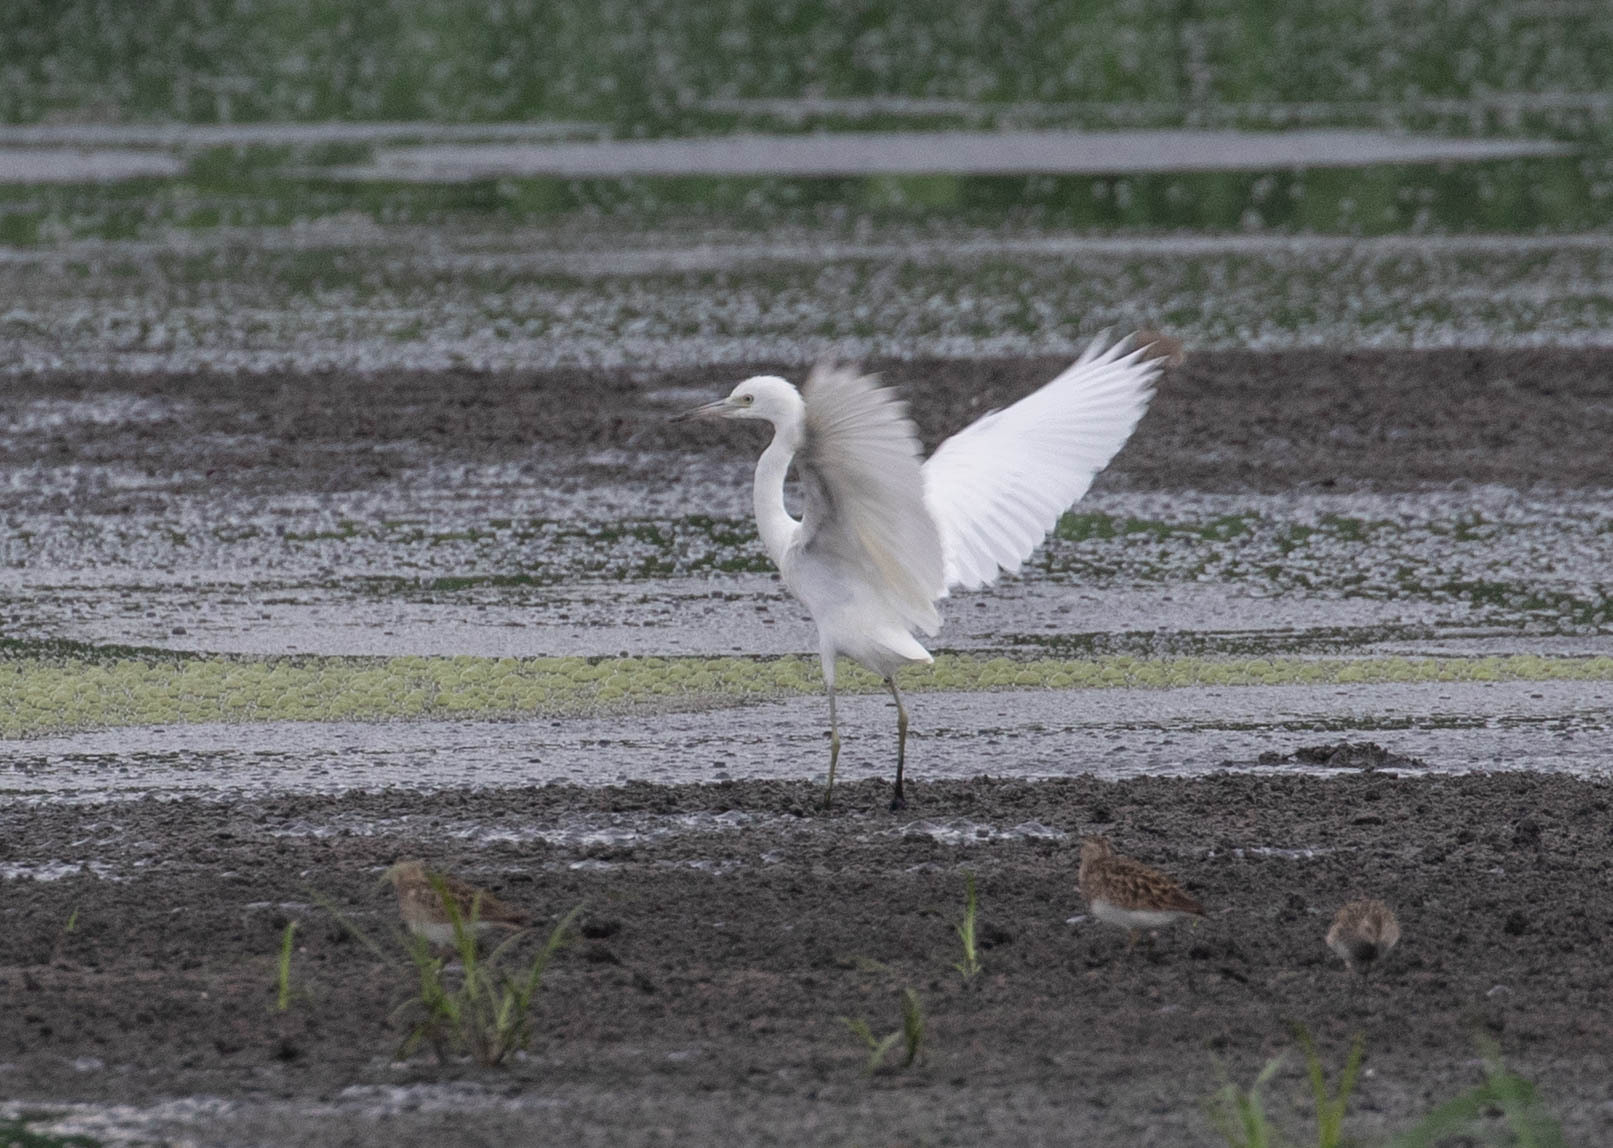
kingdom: Animalia
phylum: Chordata
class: Aves
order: Pelecaniformes
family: Ardeidae
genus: Egretta
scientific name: Egretta caerulea
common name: Little blue heron
